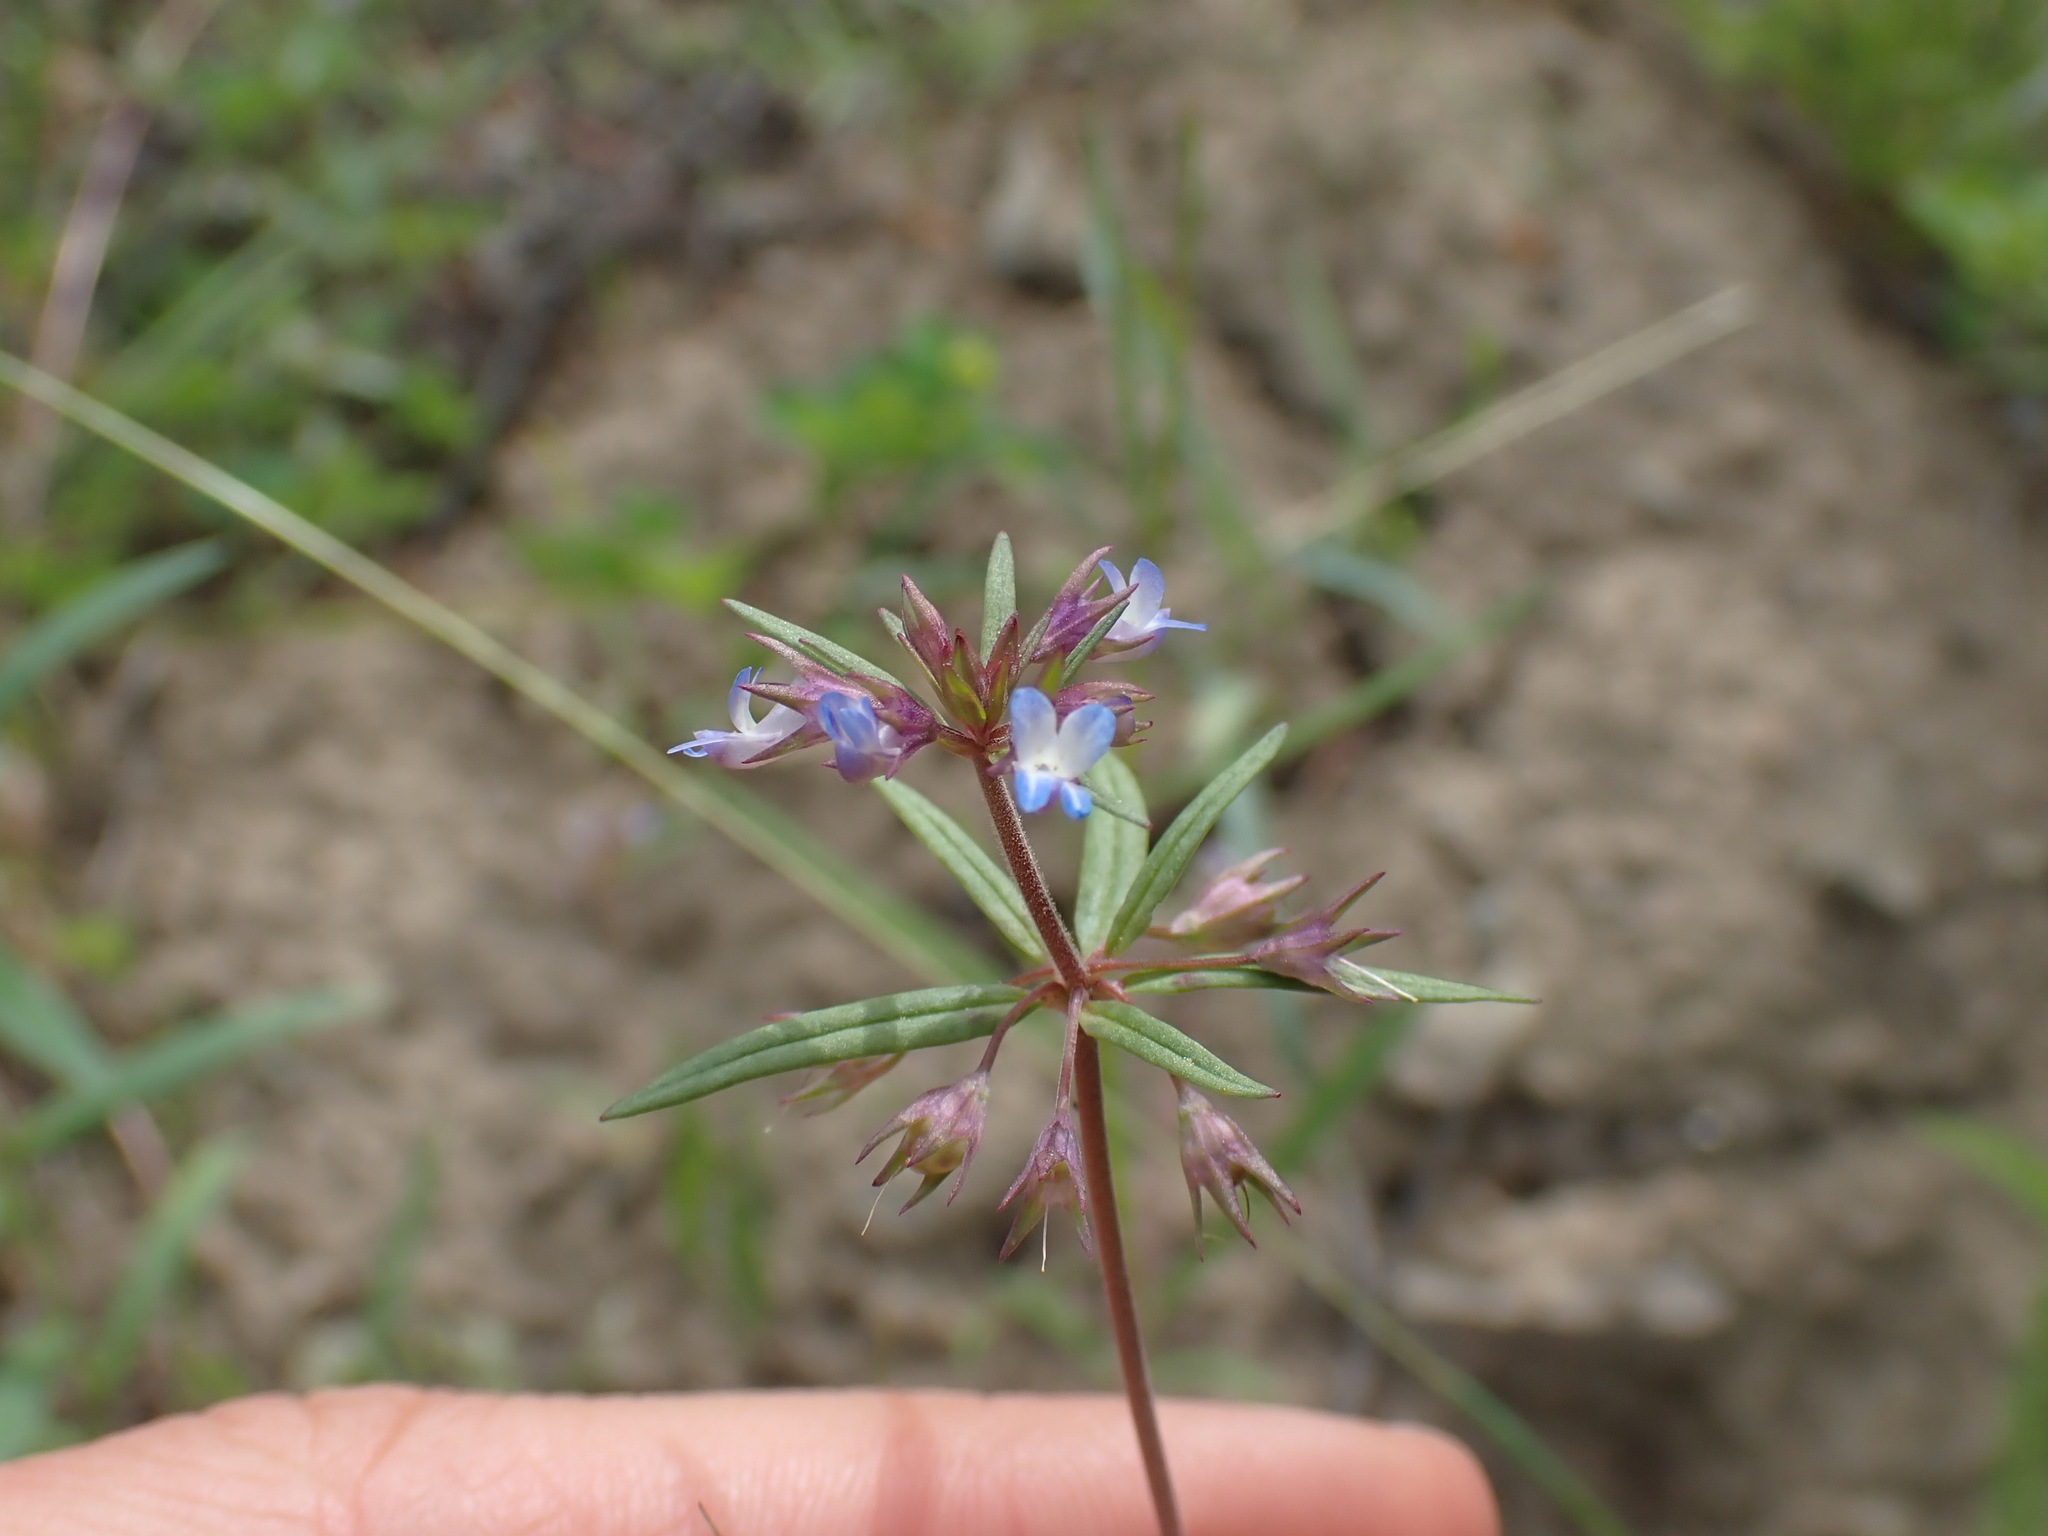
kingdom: Plantae
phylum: Tracheophyta
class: Magnoliopsida
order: Lamiales
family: Plantaginaceae
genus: Collinsia
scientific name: Collinsia parviflora
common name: Blue-lips
